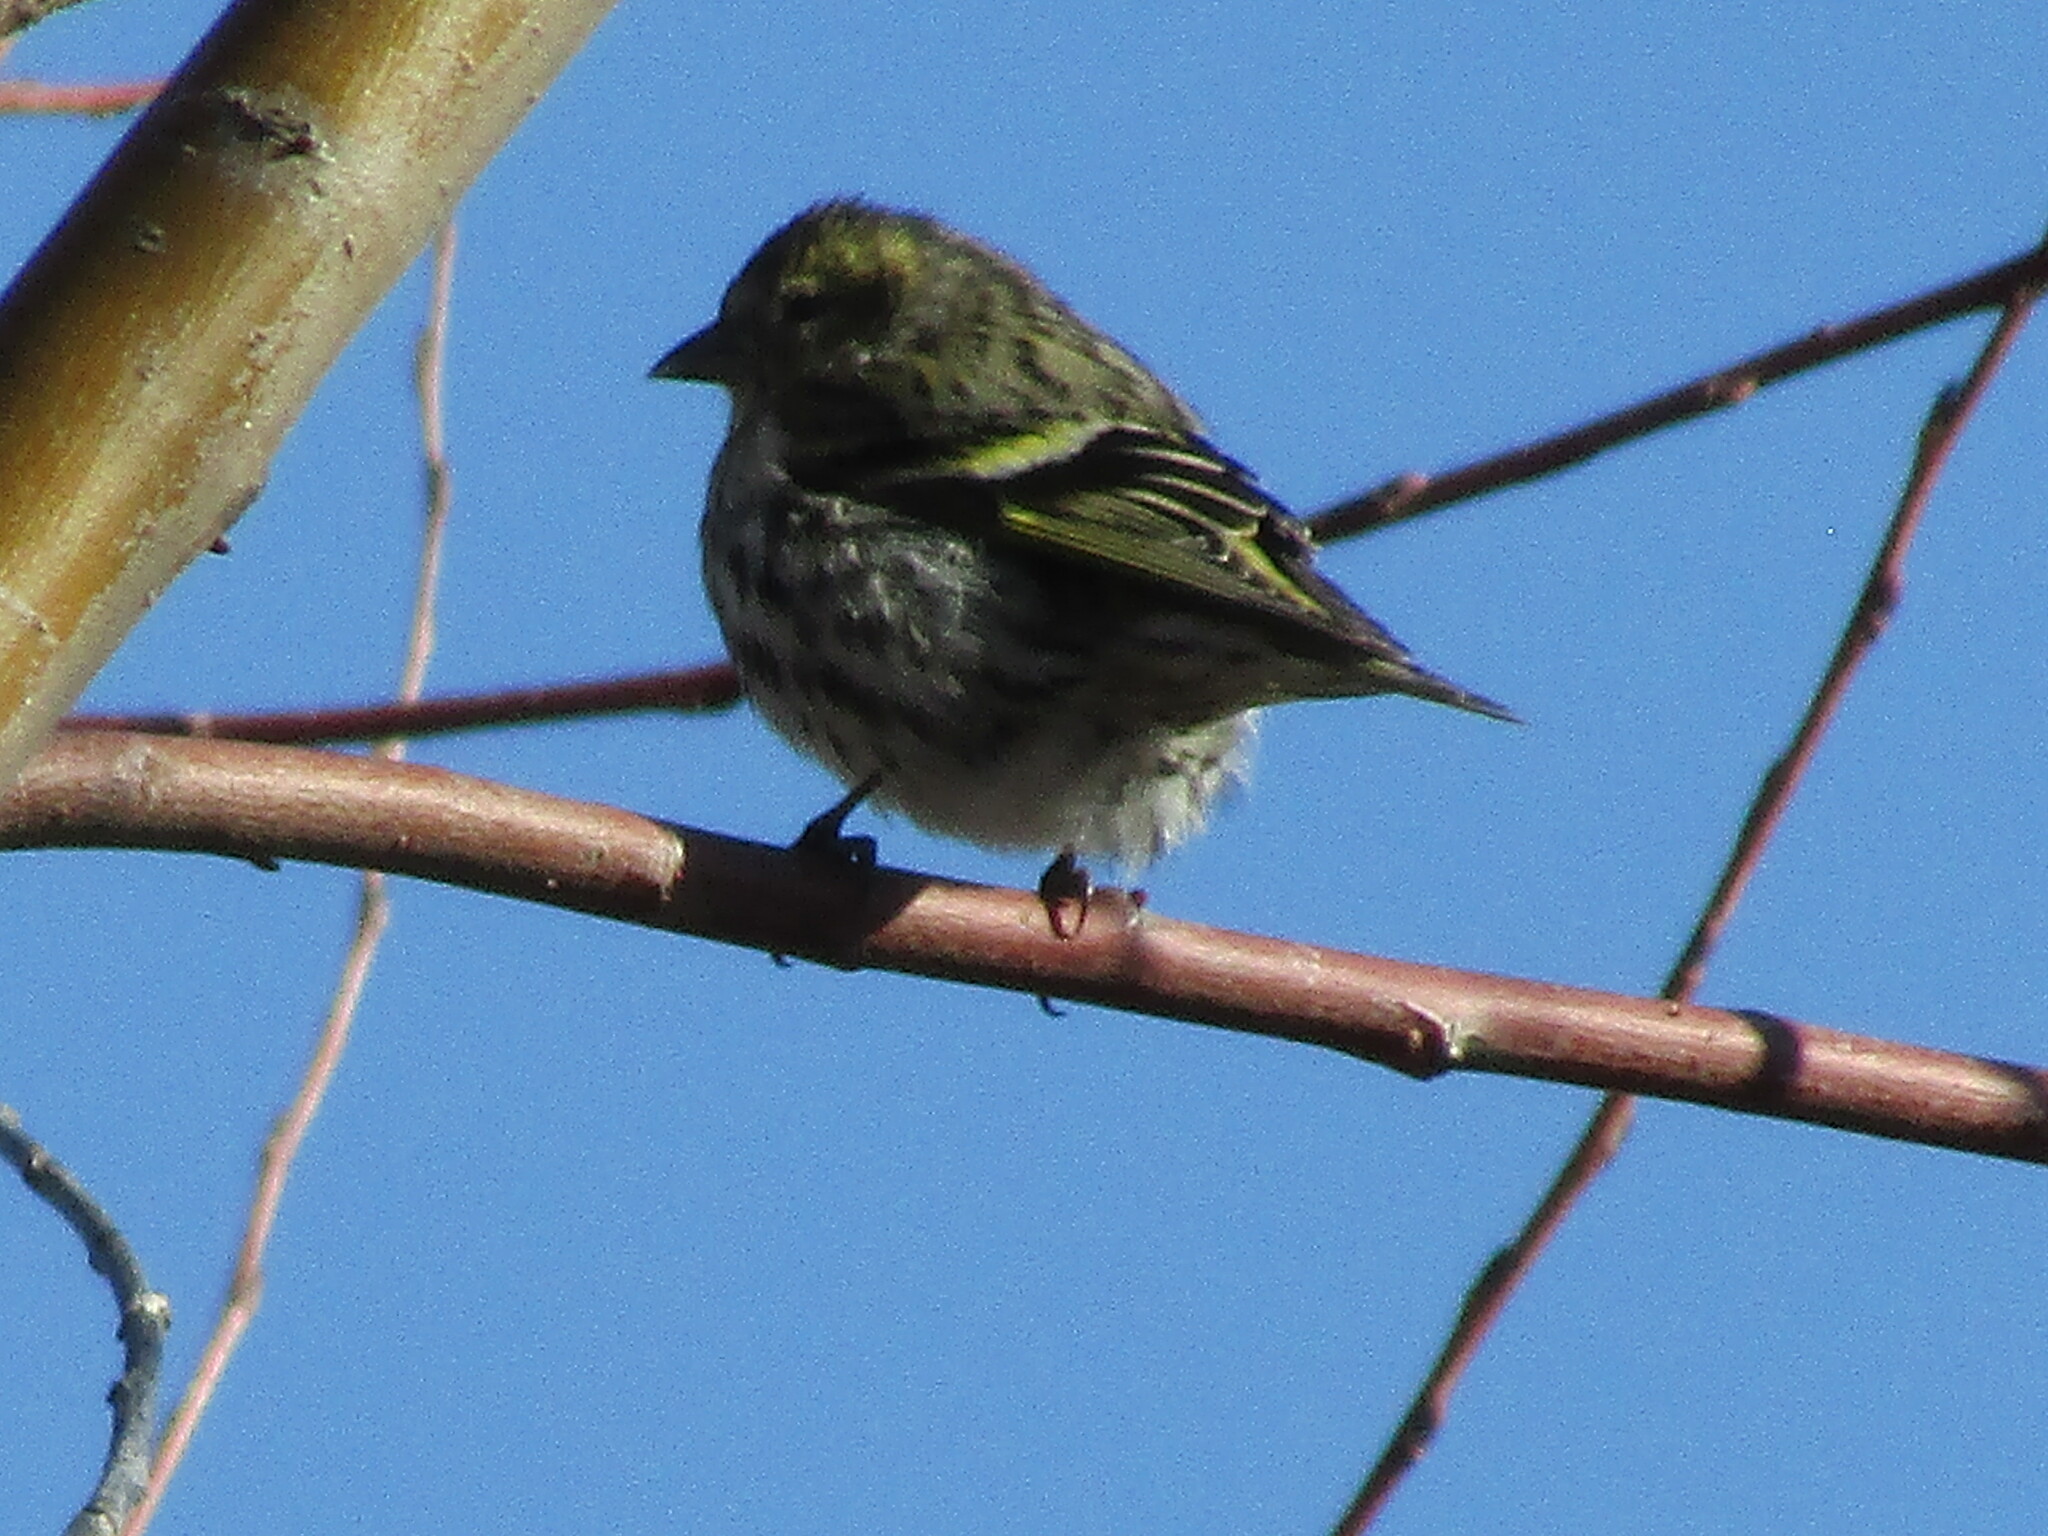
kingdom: Animalia
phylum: Chordata
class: Aves
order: Passeriformes
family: Fringillidae
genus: Spinus
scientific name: Spinus spinus
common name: Eurasian siskin
